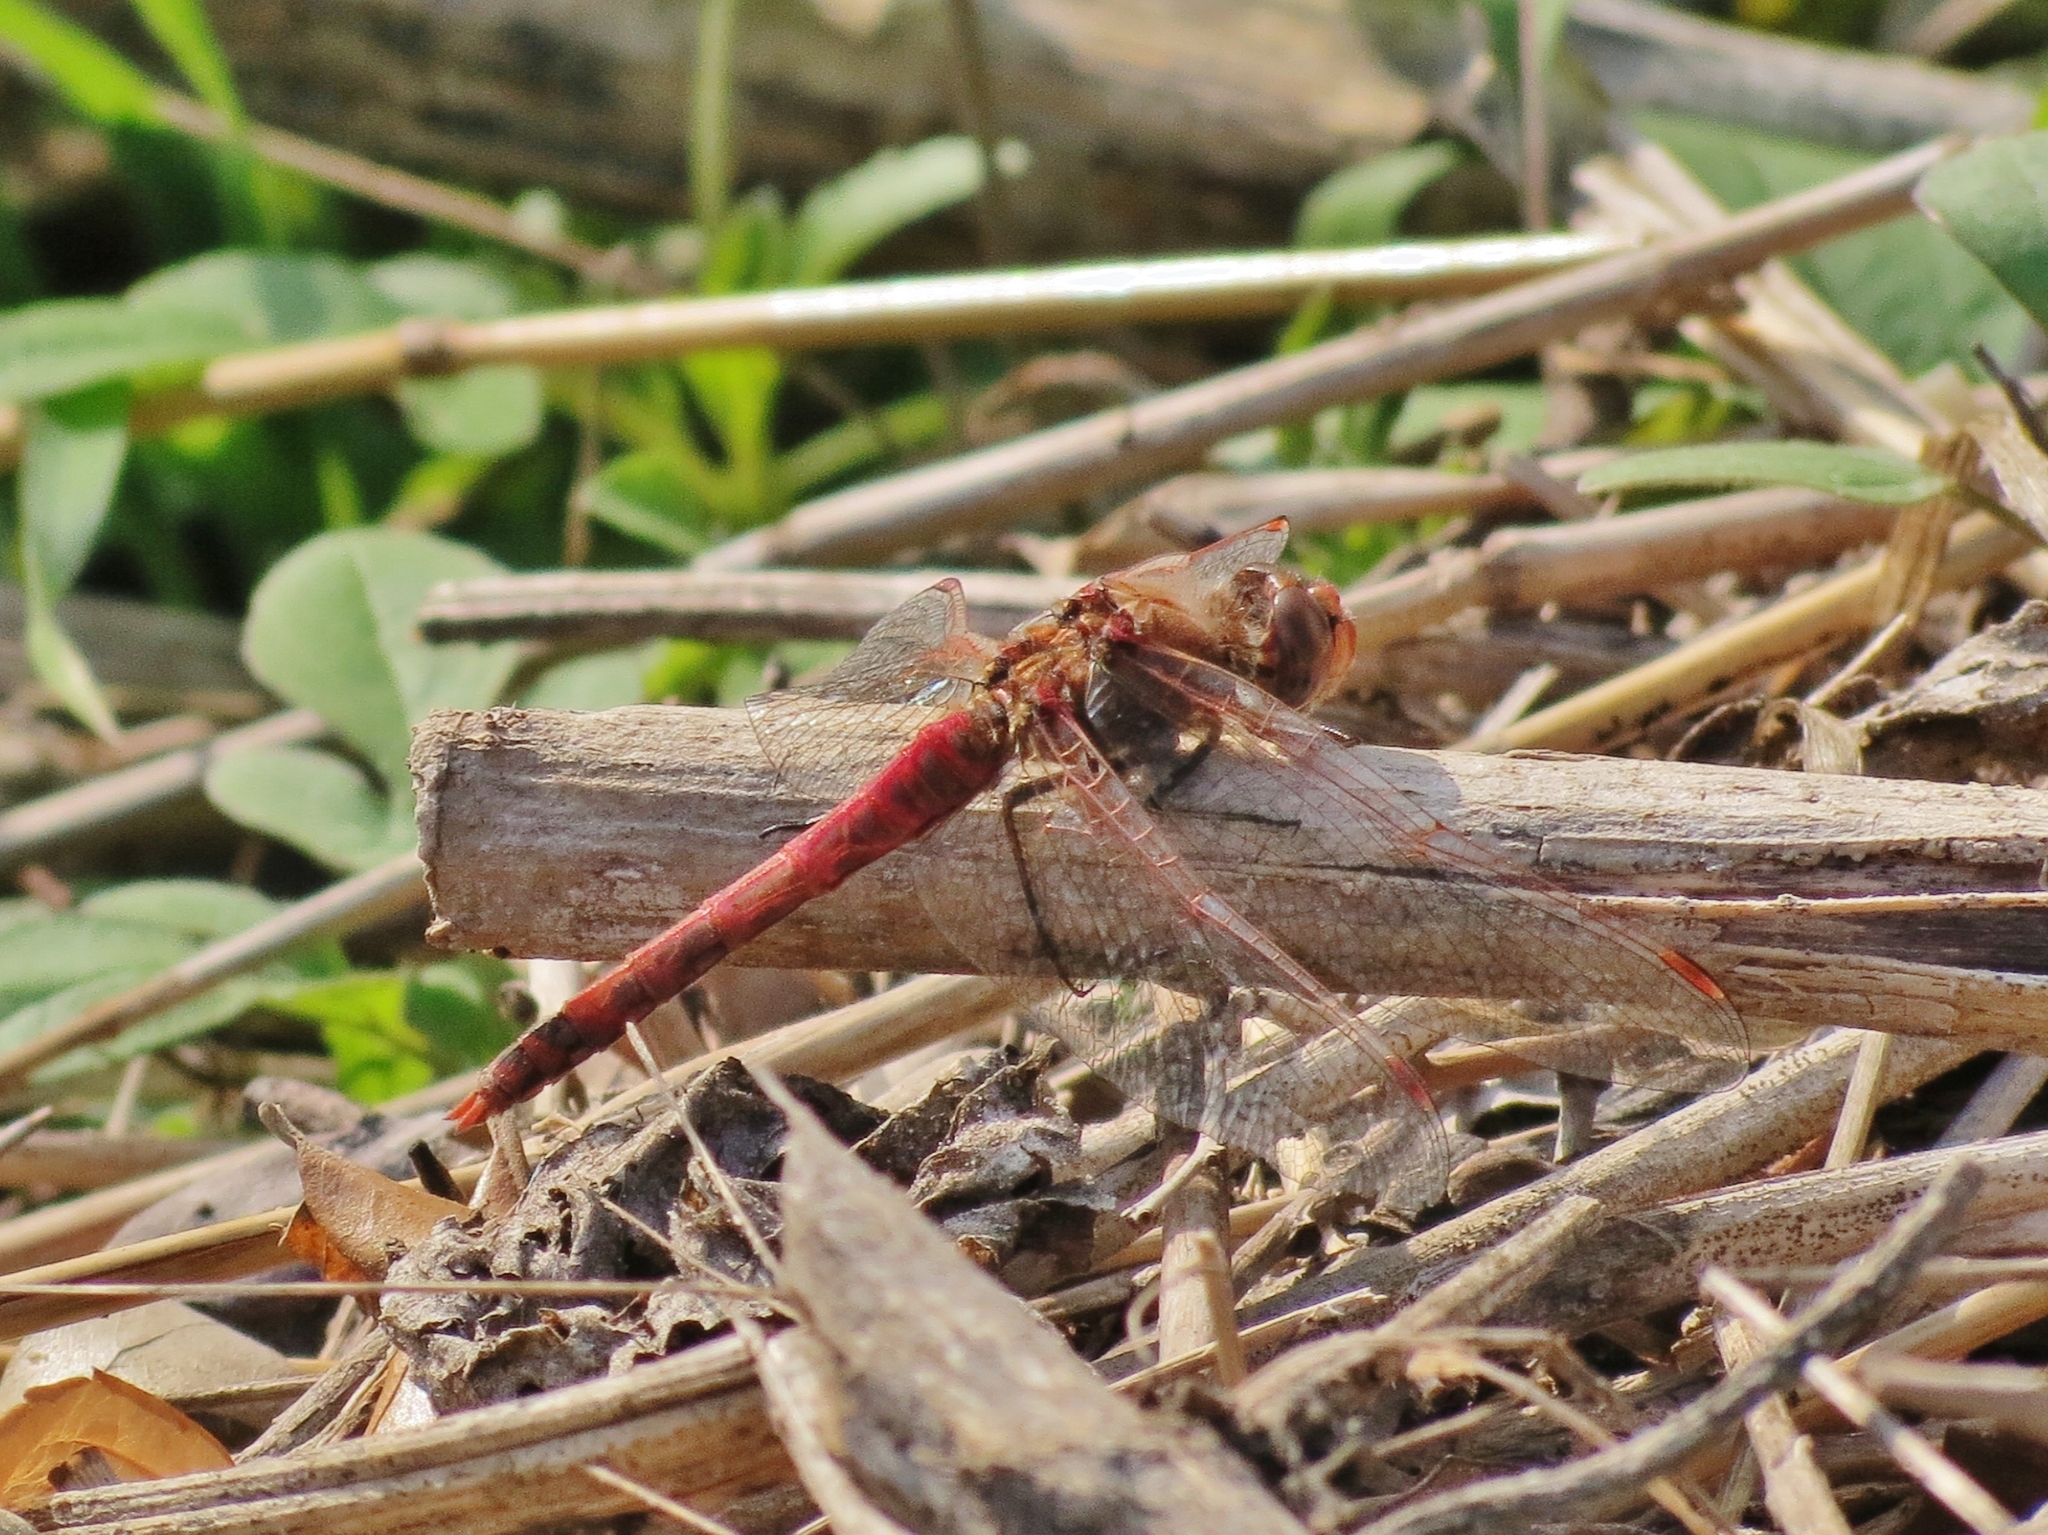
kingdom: Animalia
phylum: Arthropoda
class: Insecta
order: Odonata
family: Libellulidae
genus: Sympetrum
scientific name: Sympetrum corruptum
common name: Variegated meadowhawk
